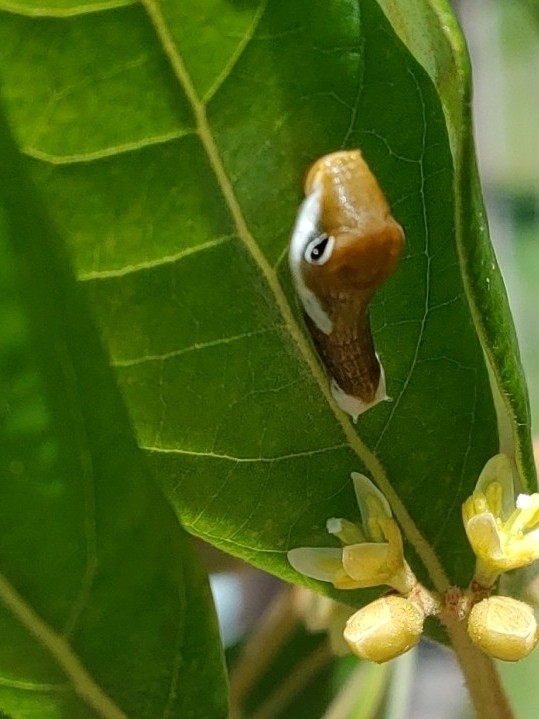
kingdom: Animalia
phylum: Arthropoda
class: Insecta
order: Lepidoptera
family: Papilionidae
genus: Papilio
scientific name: Papilio palamedes
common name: Palamedes swallowtail
